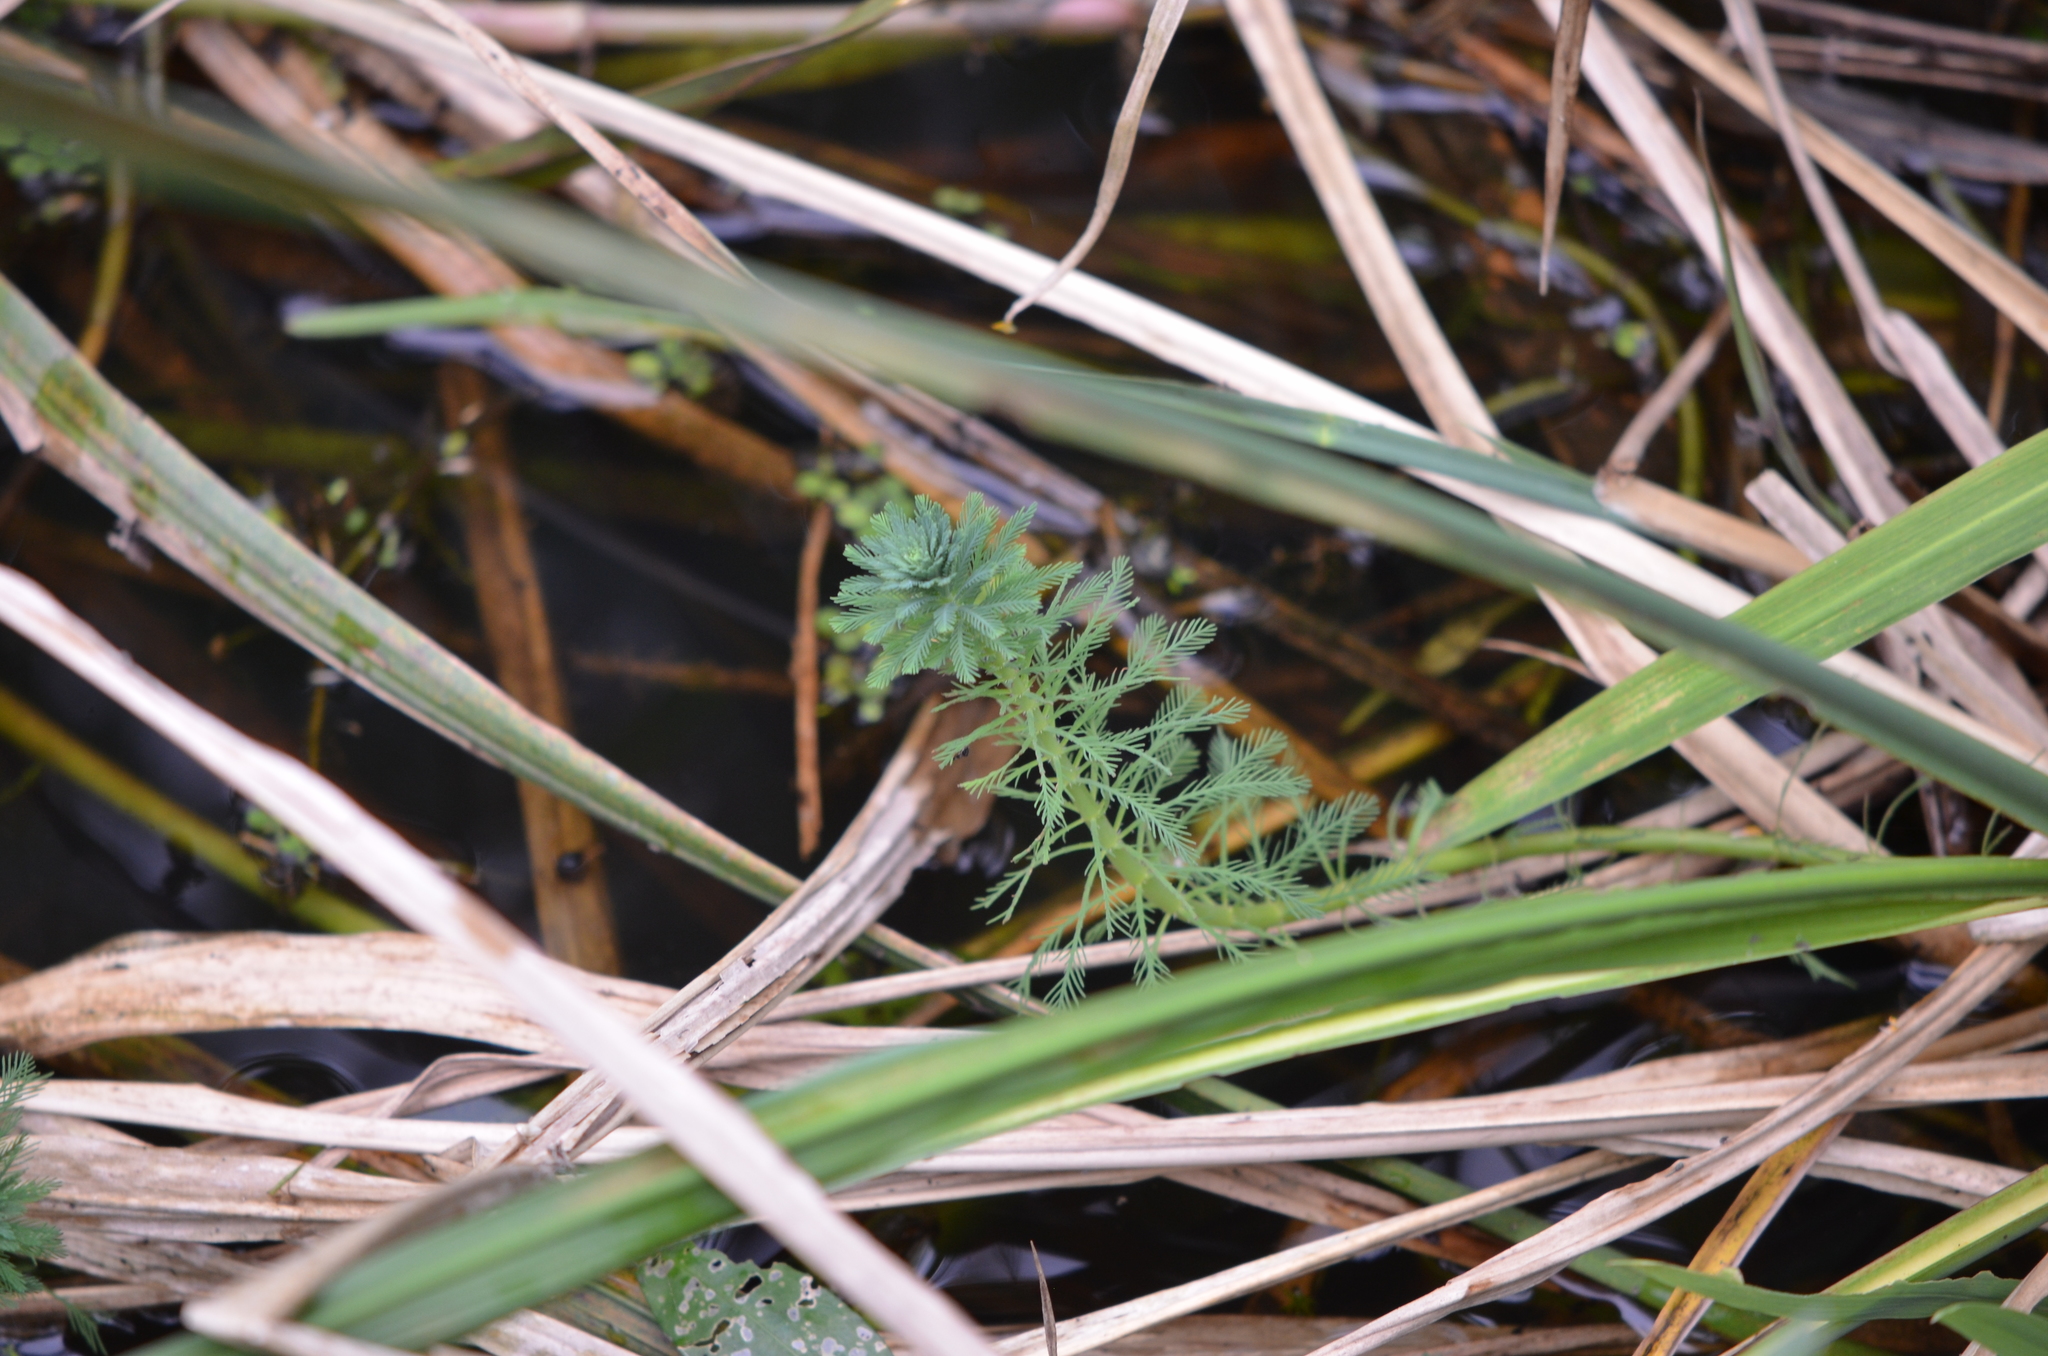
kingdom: Plantae
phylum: Tracheophyta
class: Magnoliopsida
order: Saxifragales
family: Haloragaceae
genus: Myriophyllum
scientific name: Myriophyllum aquaticum
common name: Parrot's feather
